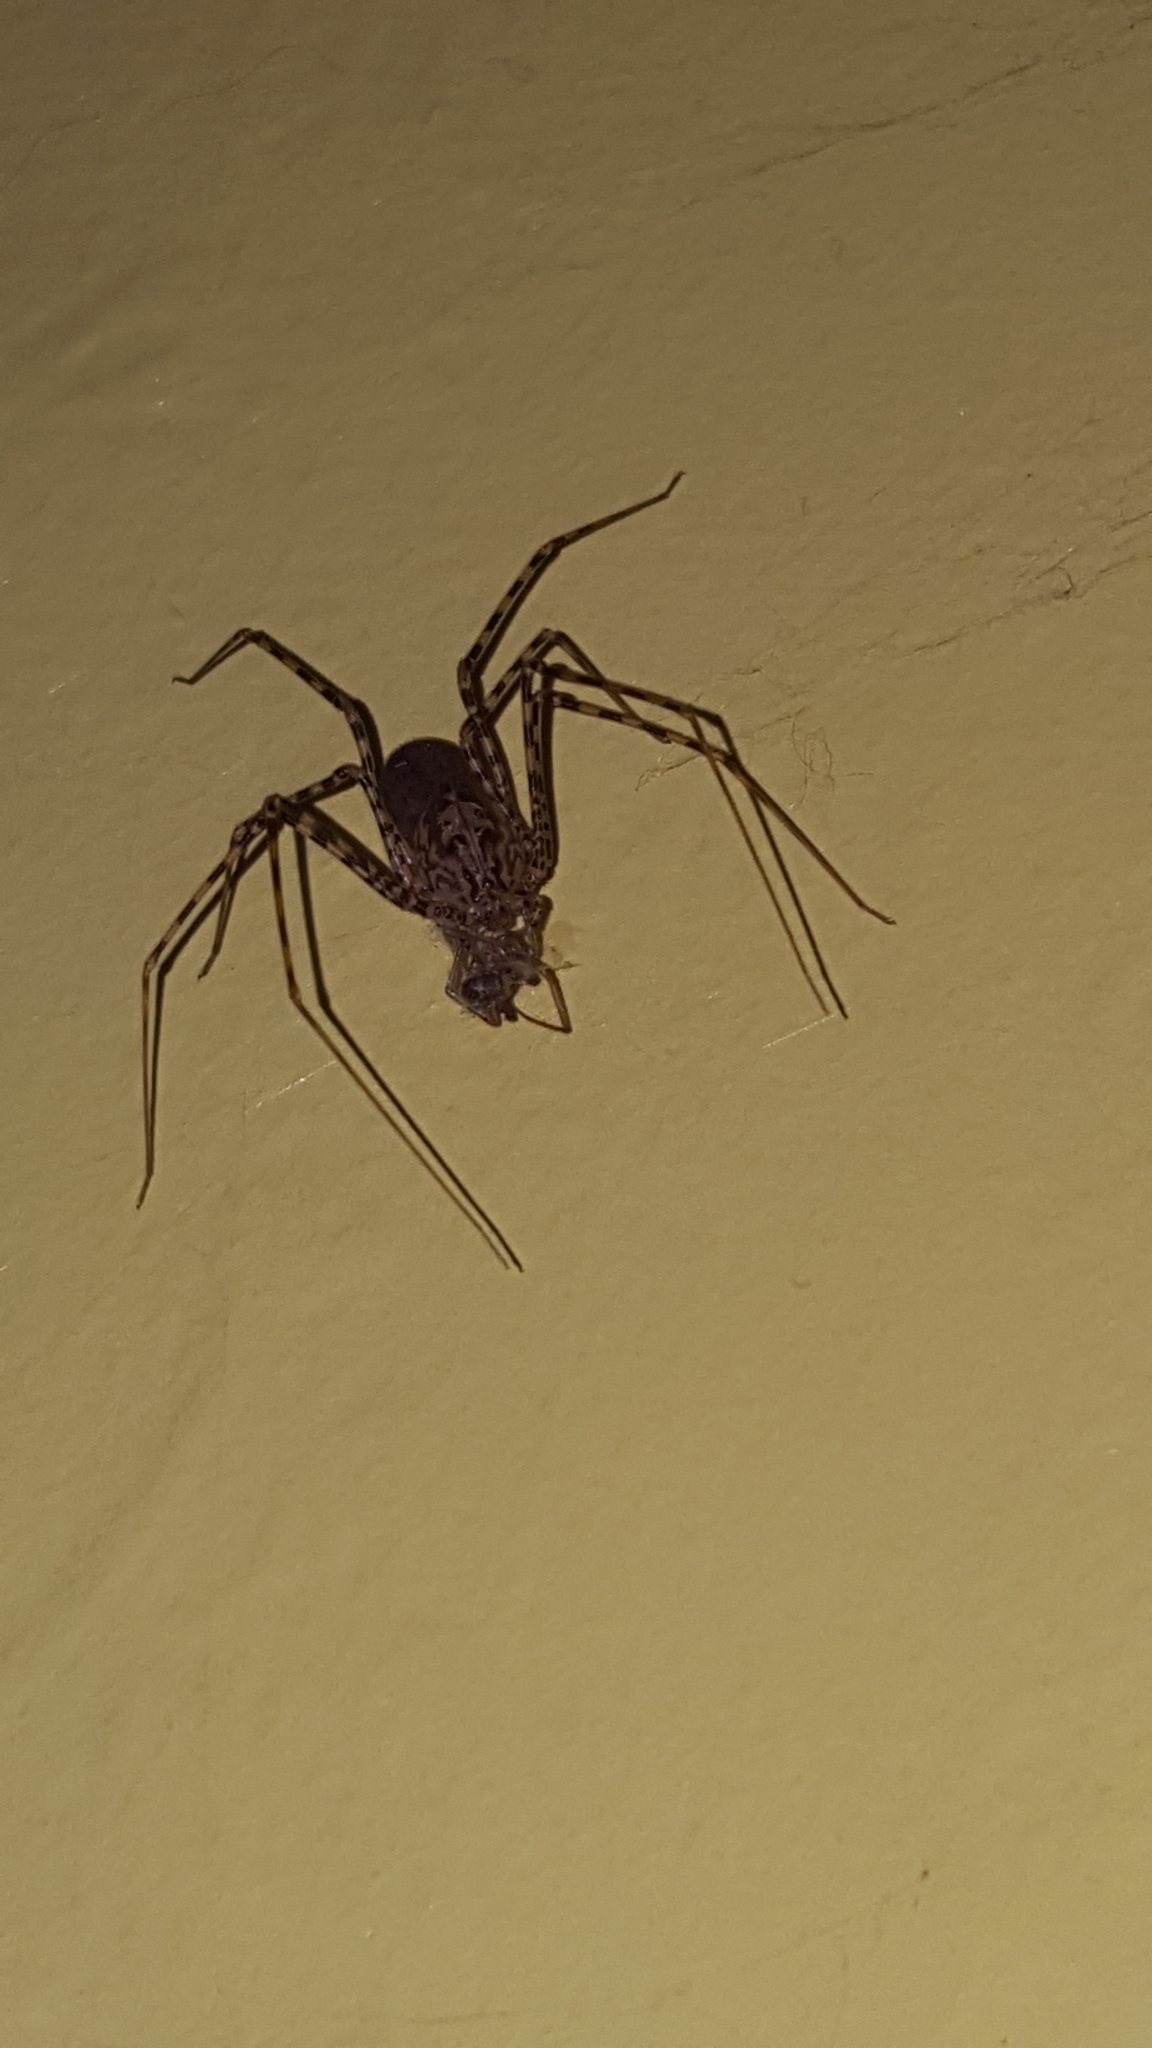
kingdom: Animalia
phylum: Arthropoda
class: Arachnida
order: Araneae
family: Scytodidae
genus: Scytodes
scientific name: Scytodes globula
